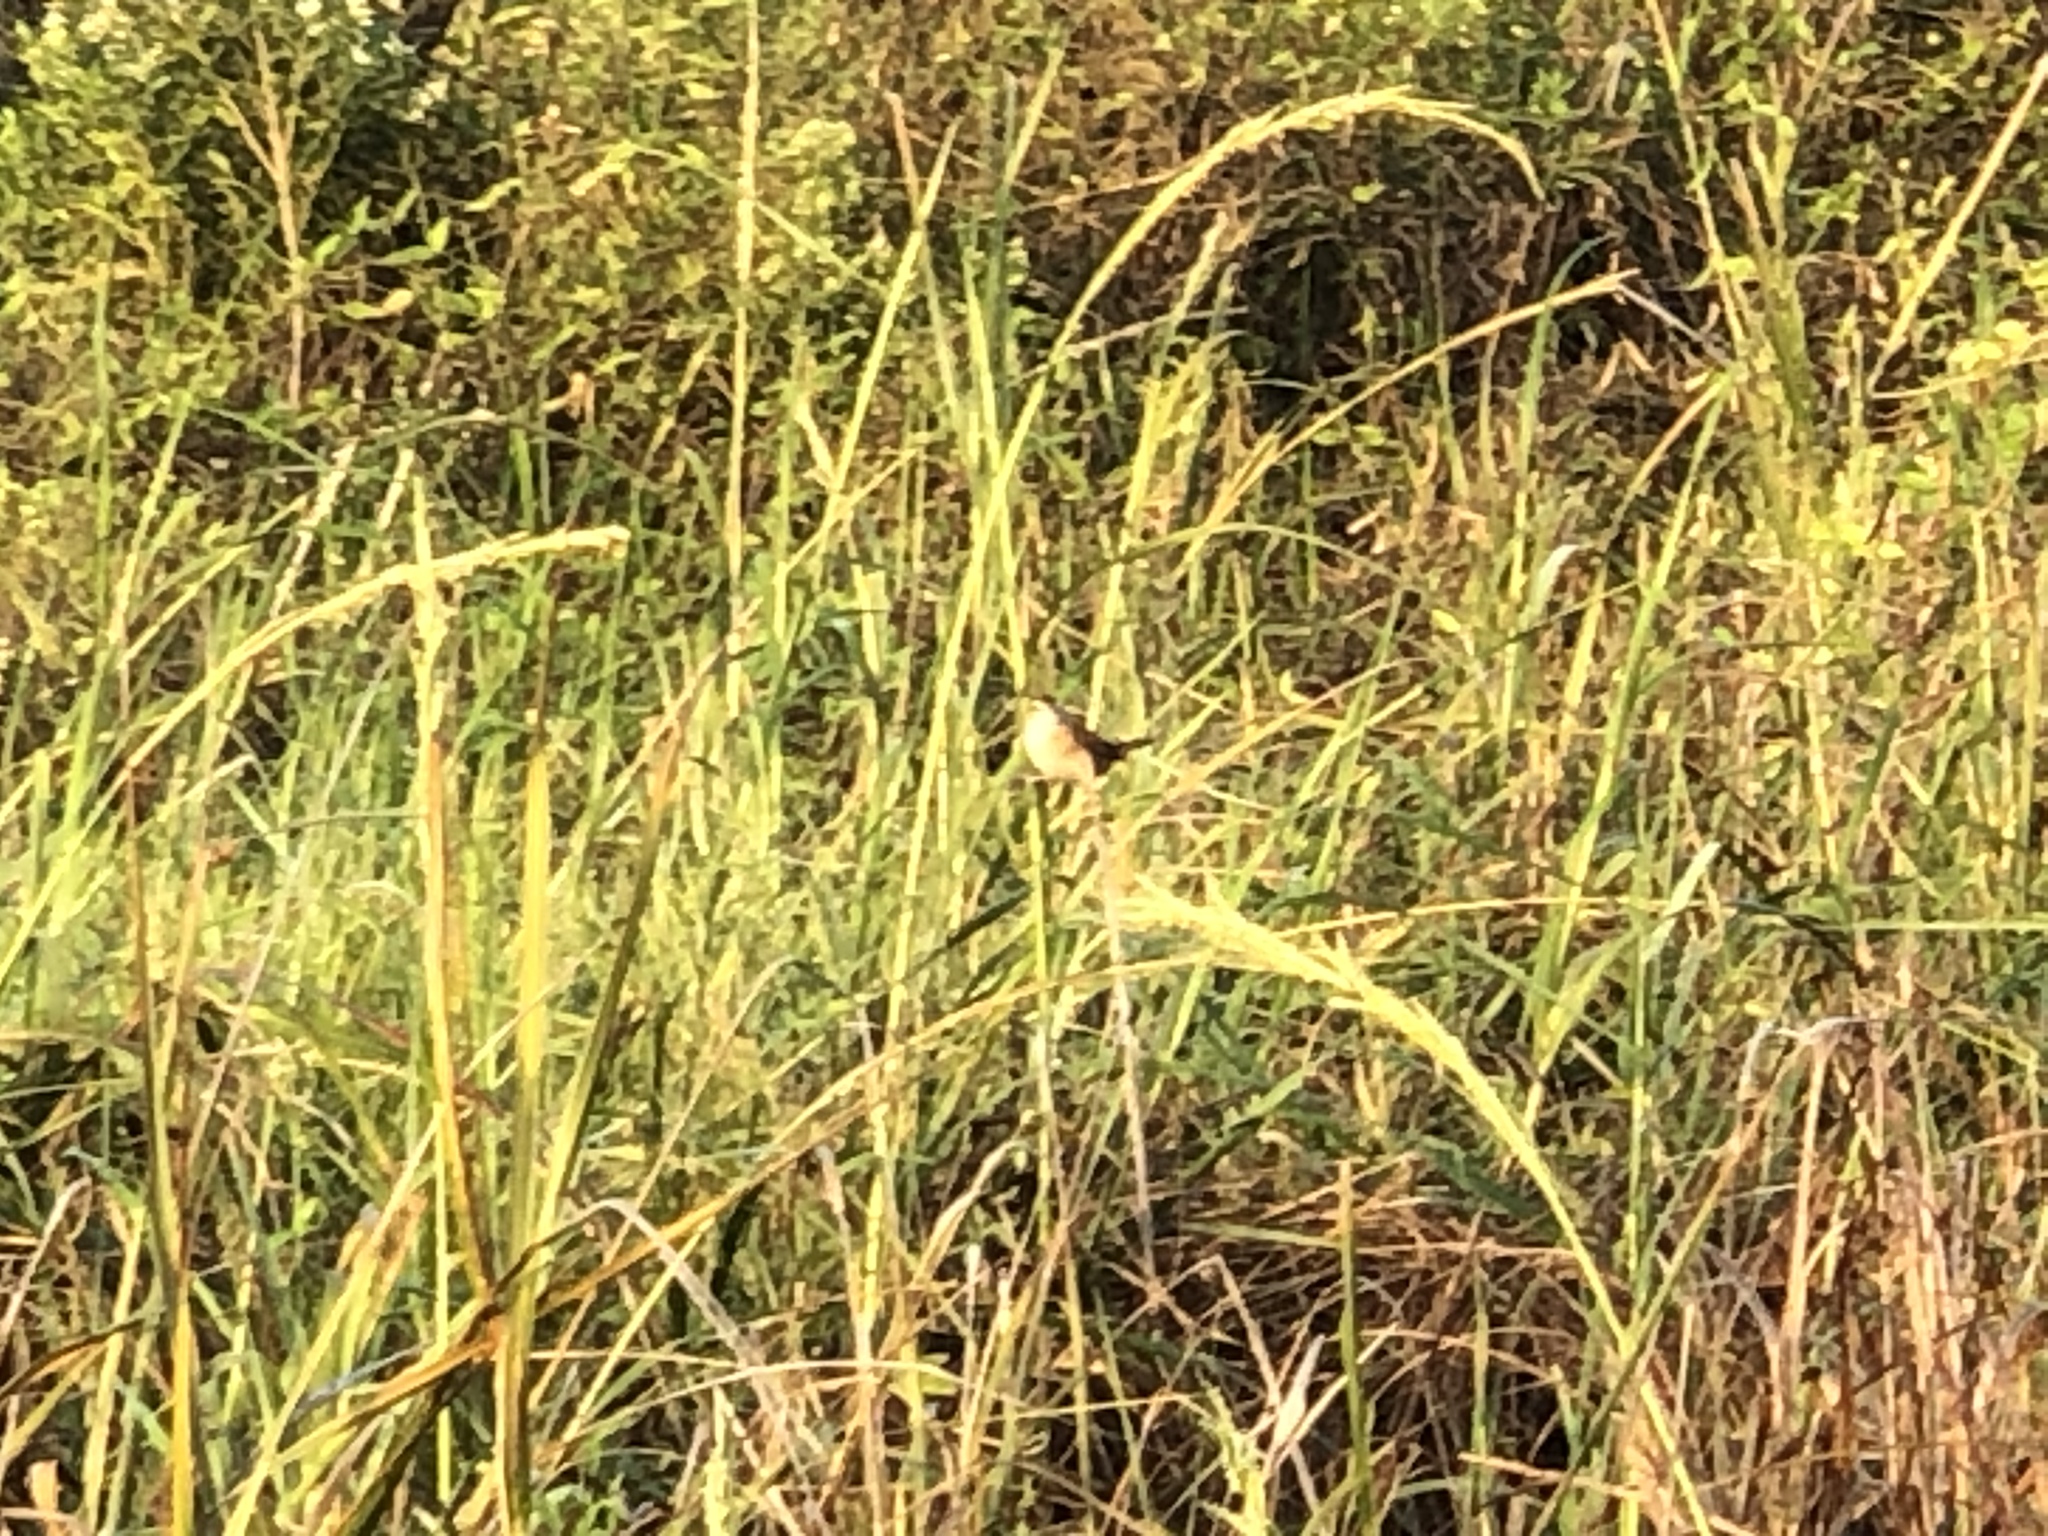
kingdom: Animalia
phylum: Chordata
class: Aves
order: Passeriformes
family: Troglodytidae
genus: Cistothorus
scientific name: Cistothorus palustris
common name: Marsh wren
